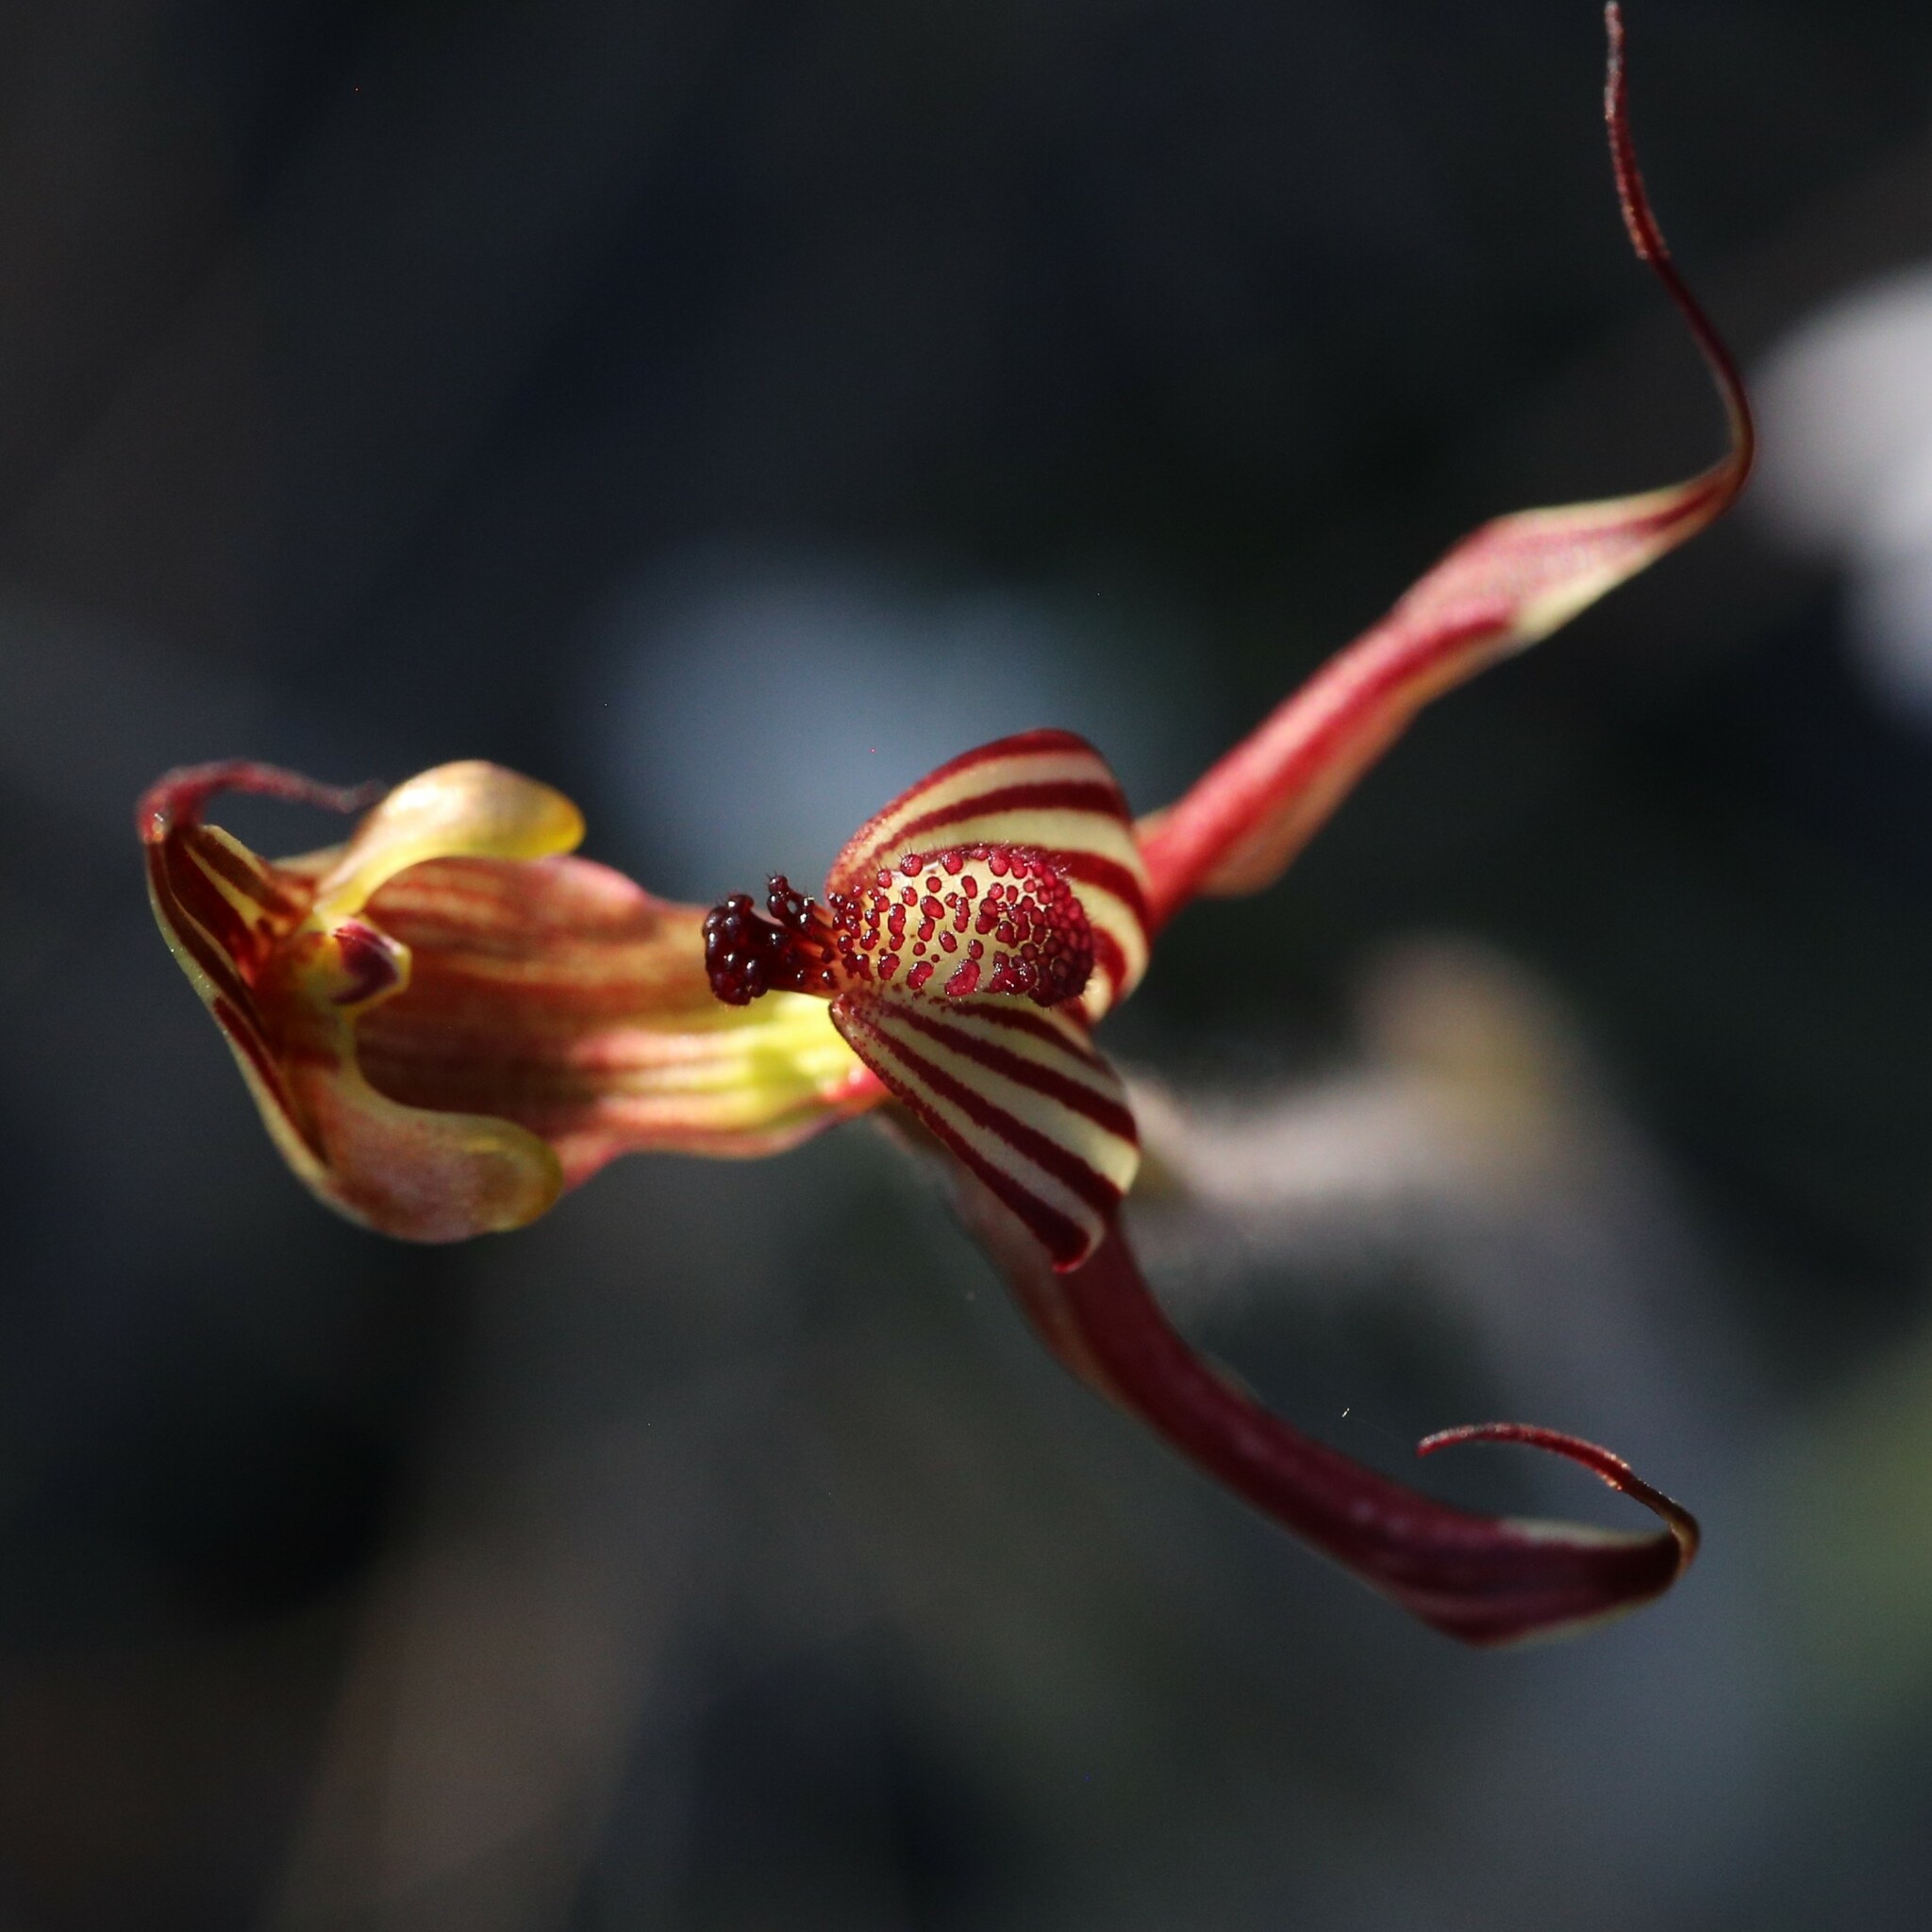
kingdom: Plantae
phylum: Tracheophyta
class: Liliopsida
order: Asparagales
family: Orchidaceae
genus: Caladenia
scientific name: Caladenia multiclavia
